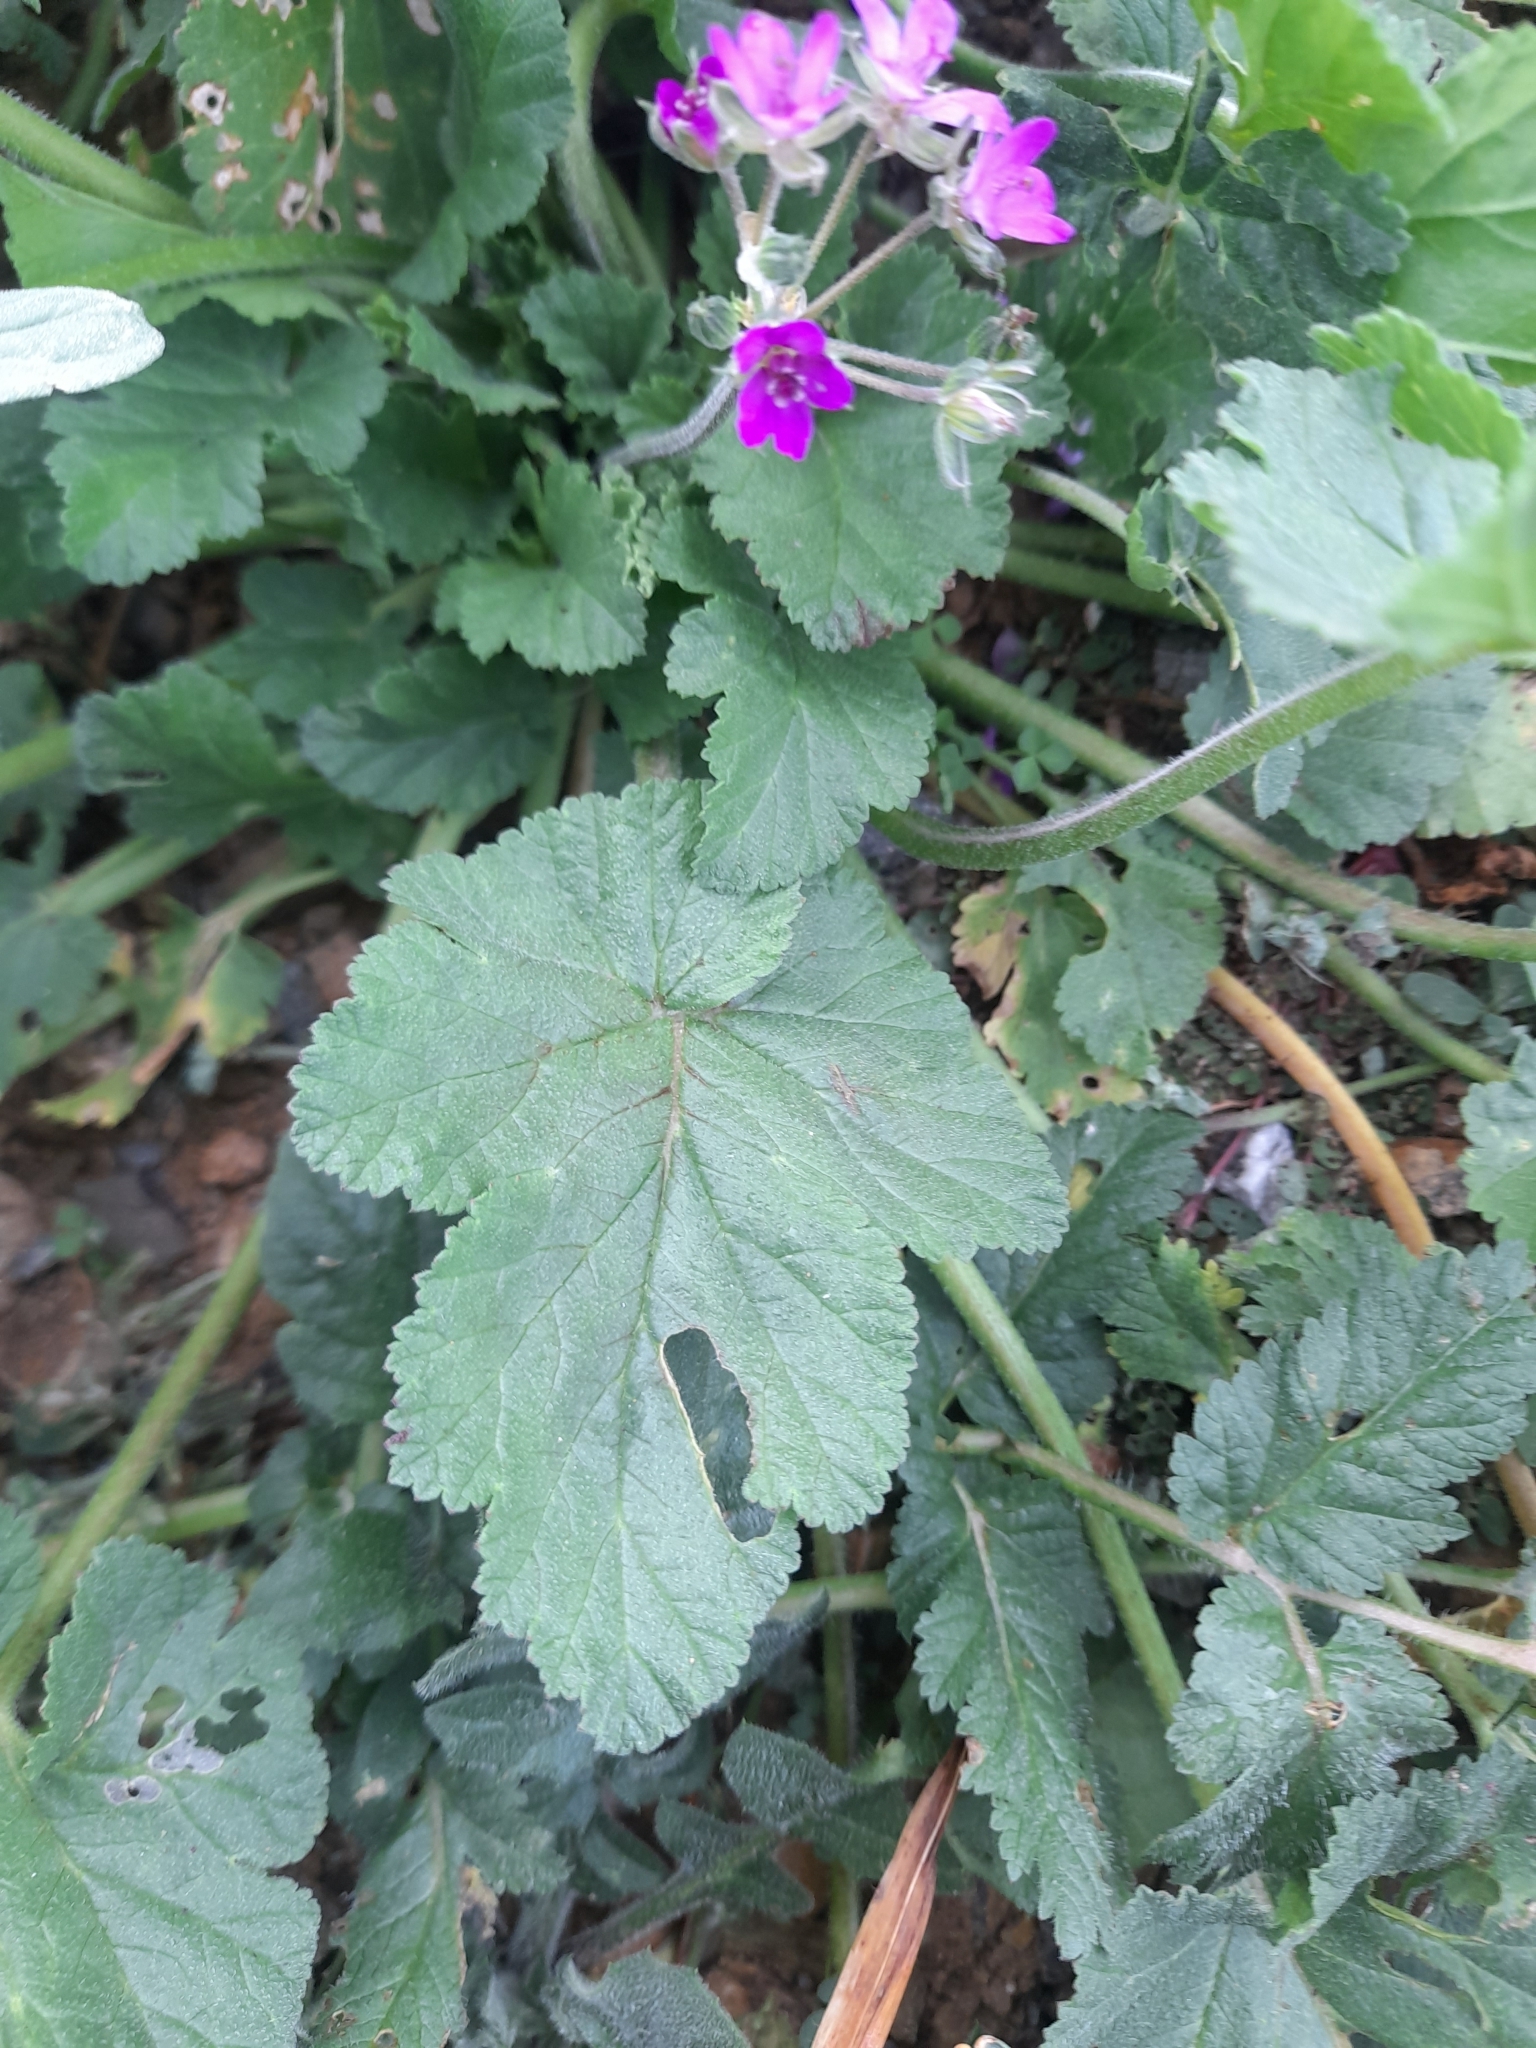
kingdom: Plantae
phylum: Tracheophyta
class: Magnoliopsida
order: Geraniales
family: Geraniaceae
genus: Erodium
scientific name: Erodium malacoides
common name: Soft stork's-bill
